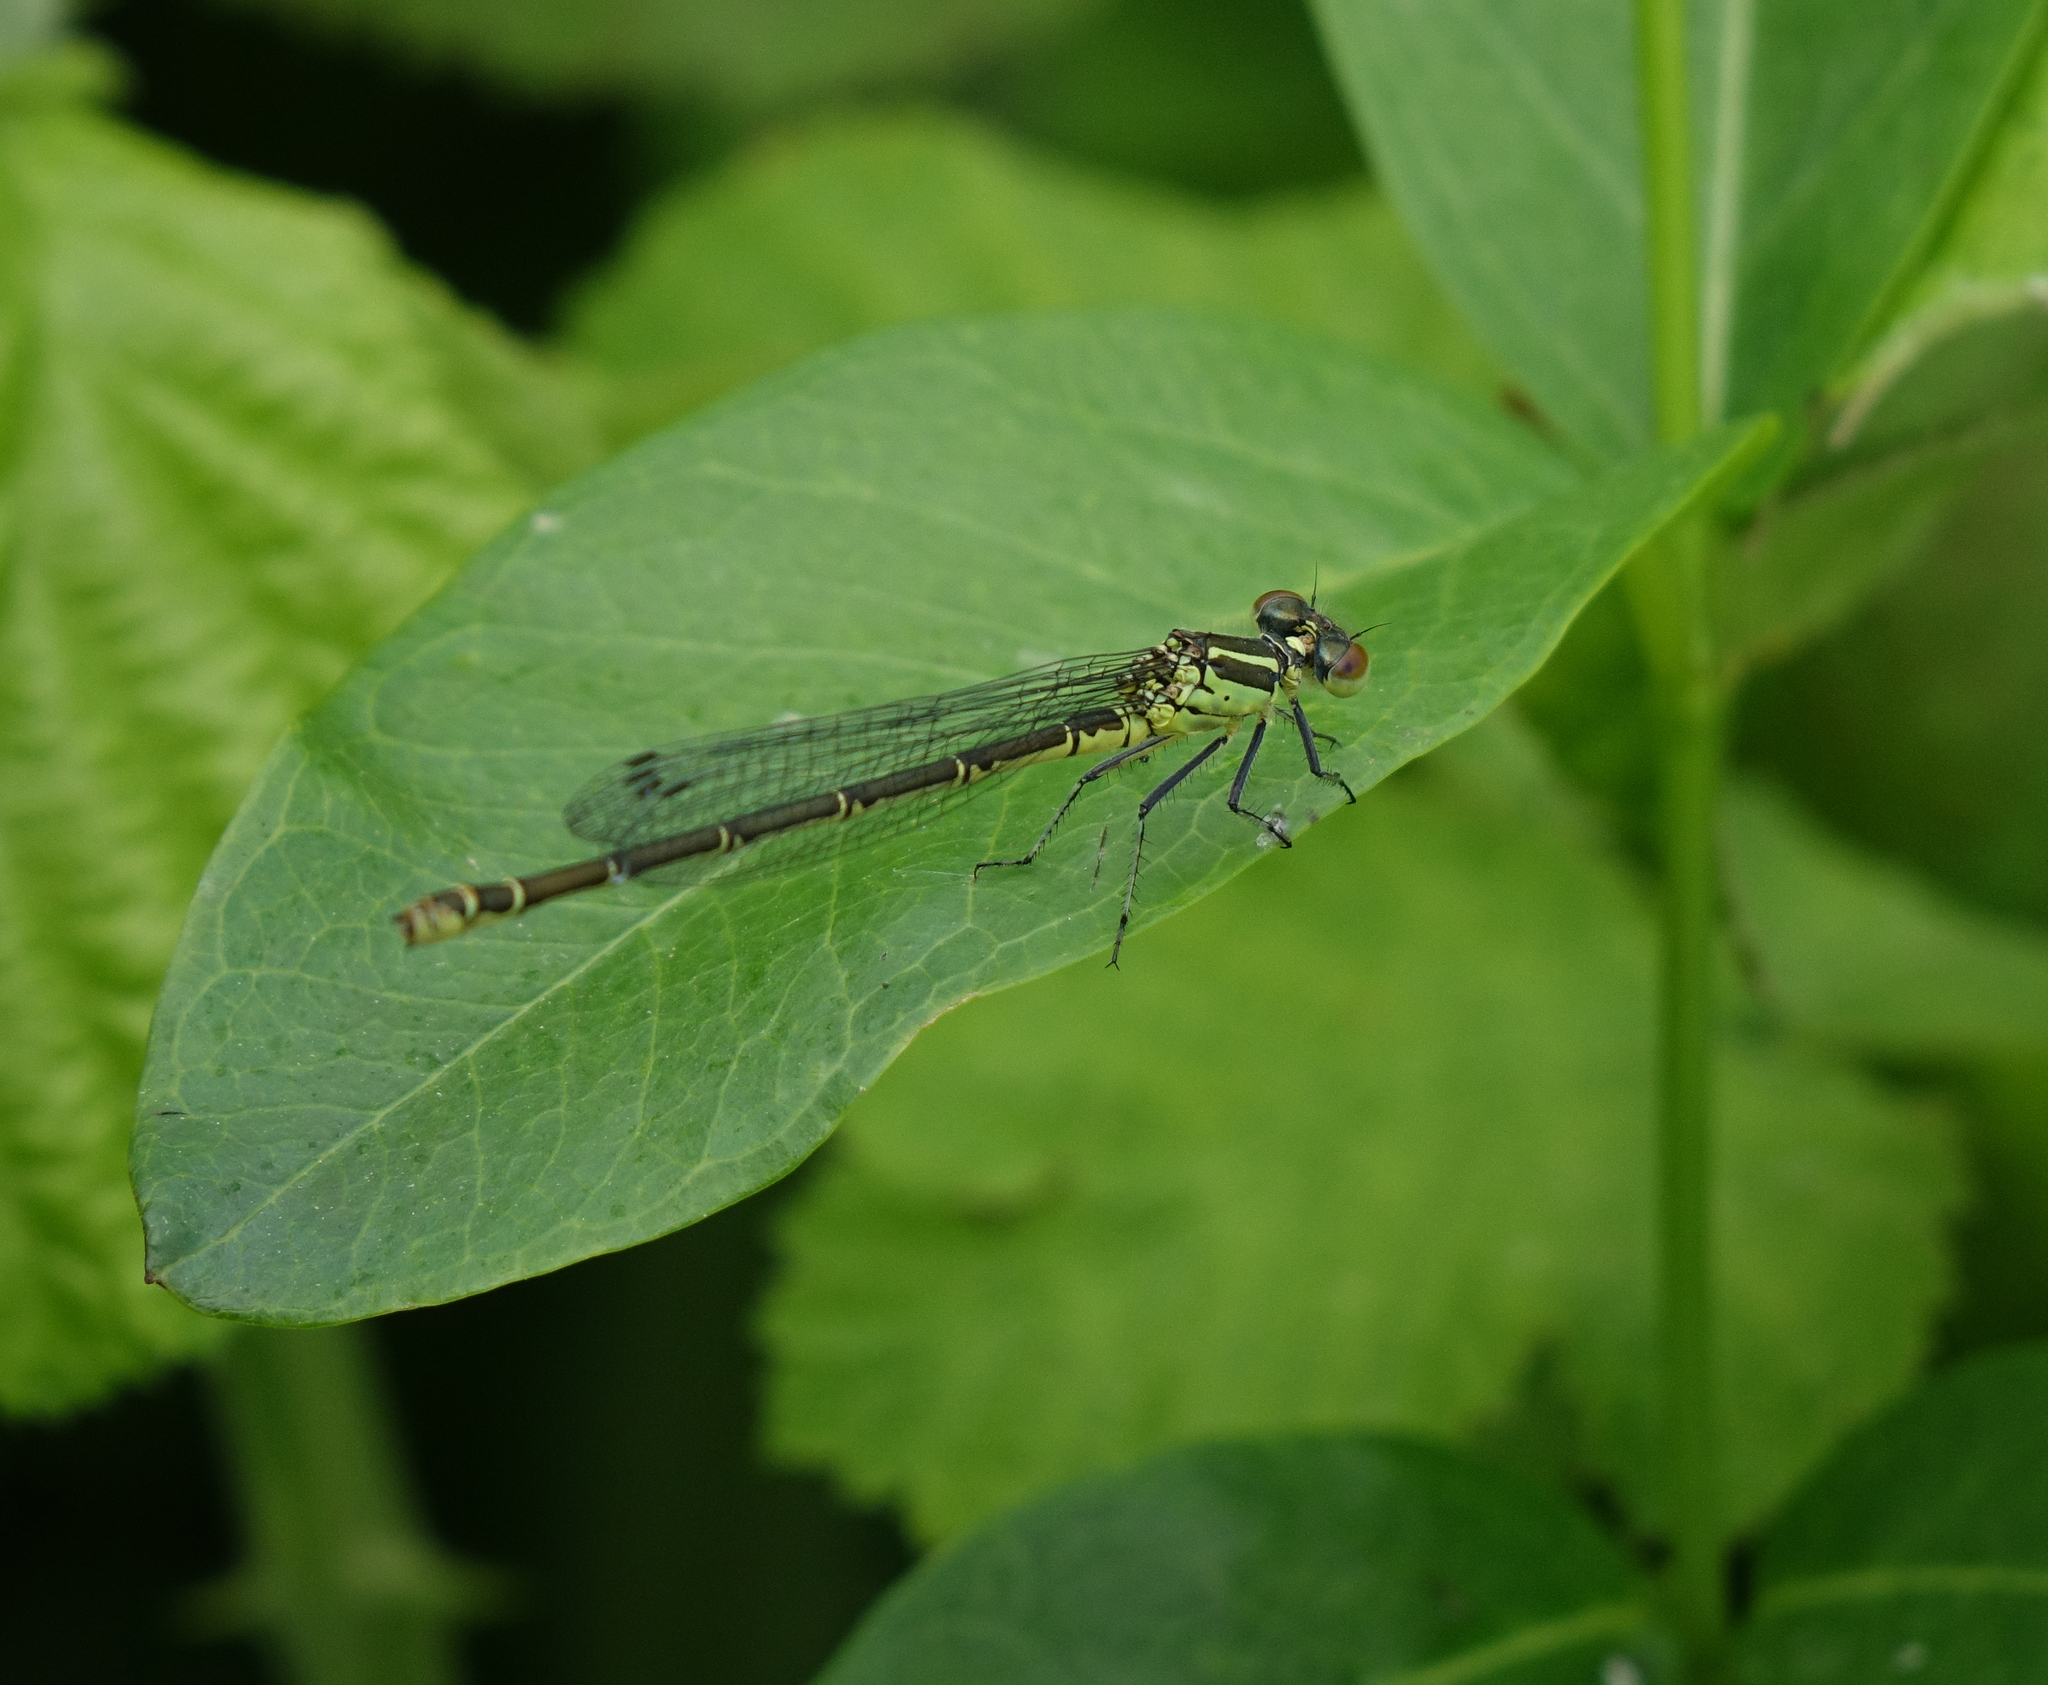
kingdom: Animalia
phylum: Arthropoda
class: Insecta
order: Odonata
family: Coenagrionidae
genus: Erythromma
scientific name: Erythromma viridulum
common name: Small red-eyed damselfly
